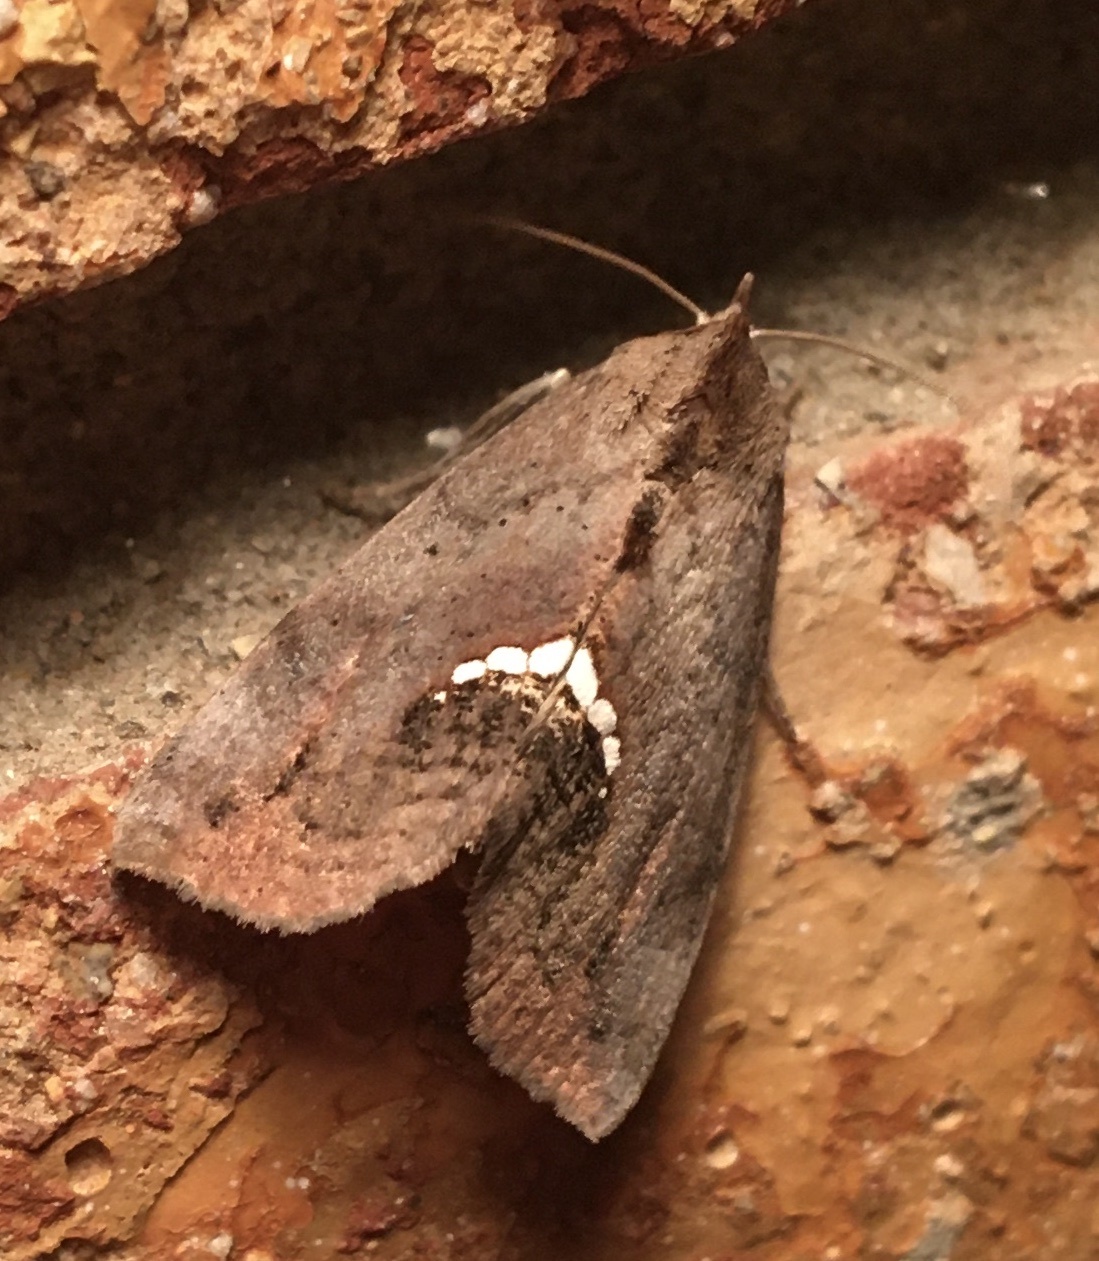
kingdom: Animalia
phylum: Arthropoda
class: Insecta
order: Lepidoptera
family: Erebidae
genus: Hypsoropha
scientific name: Hypsoropha hormos
